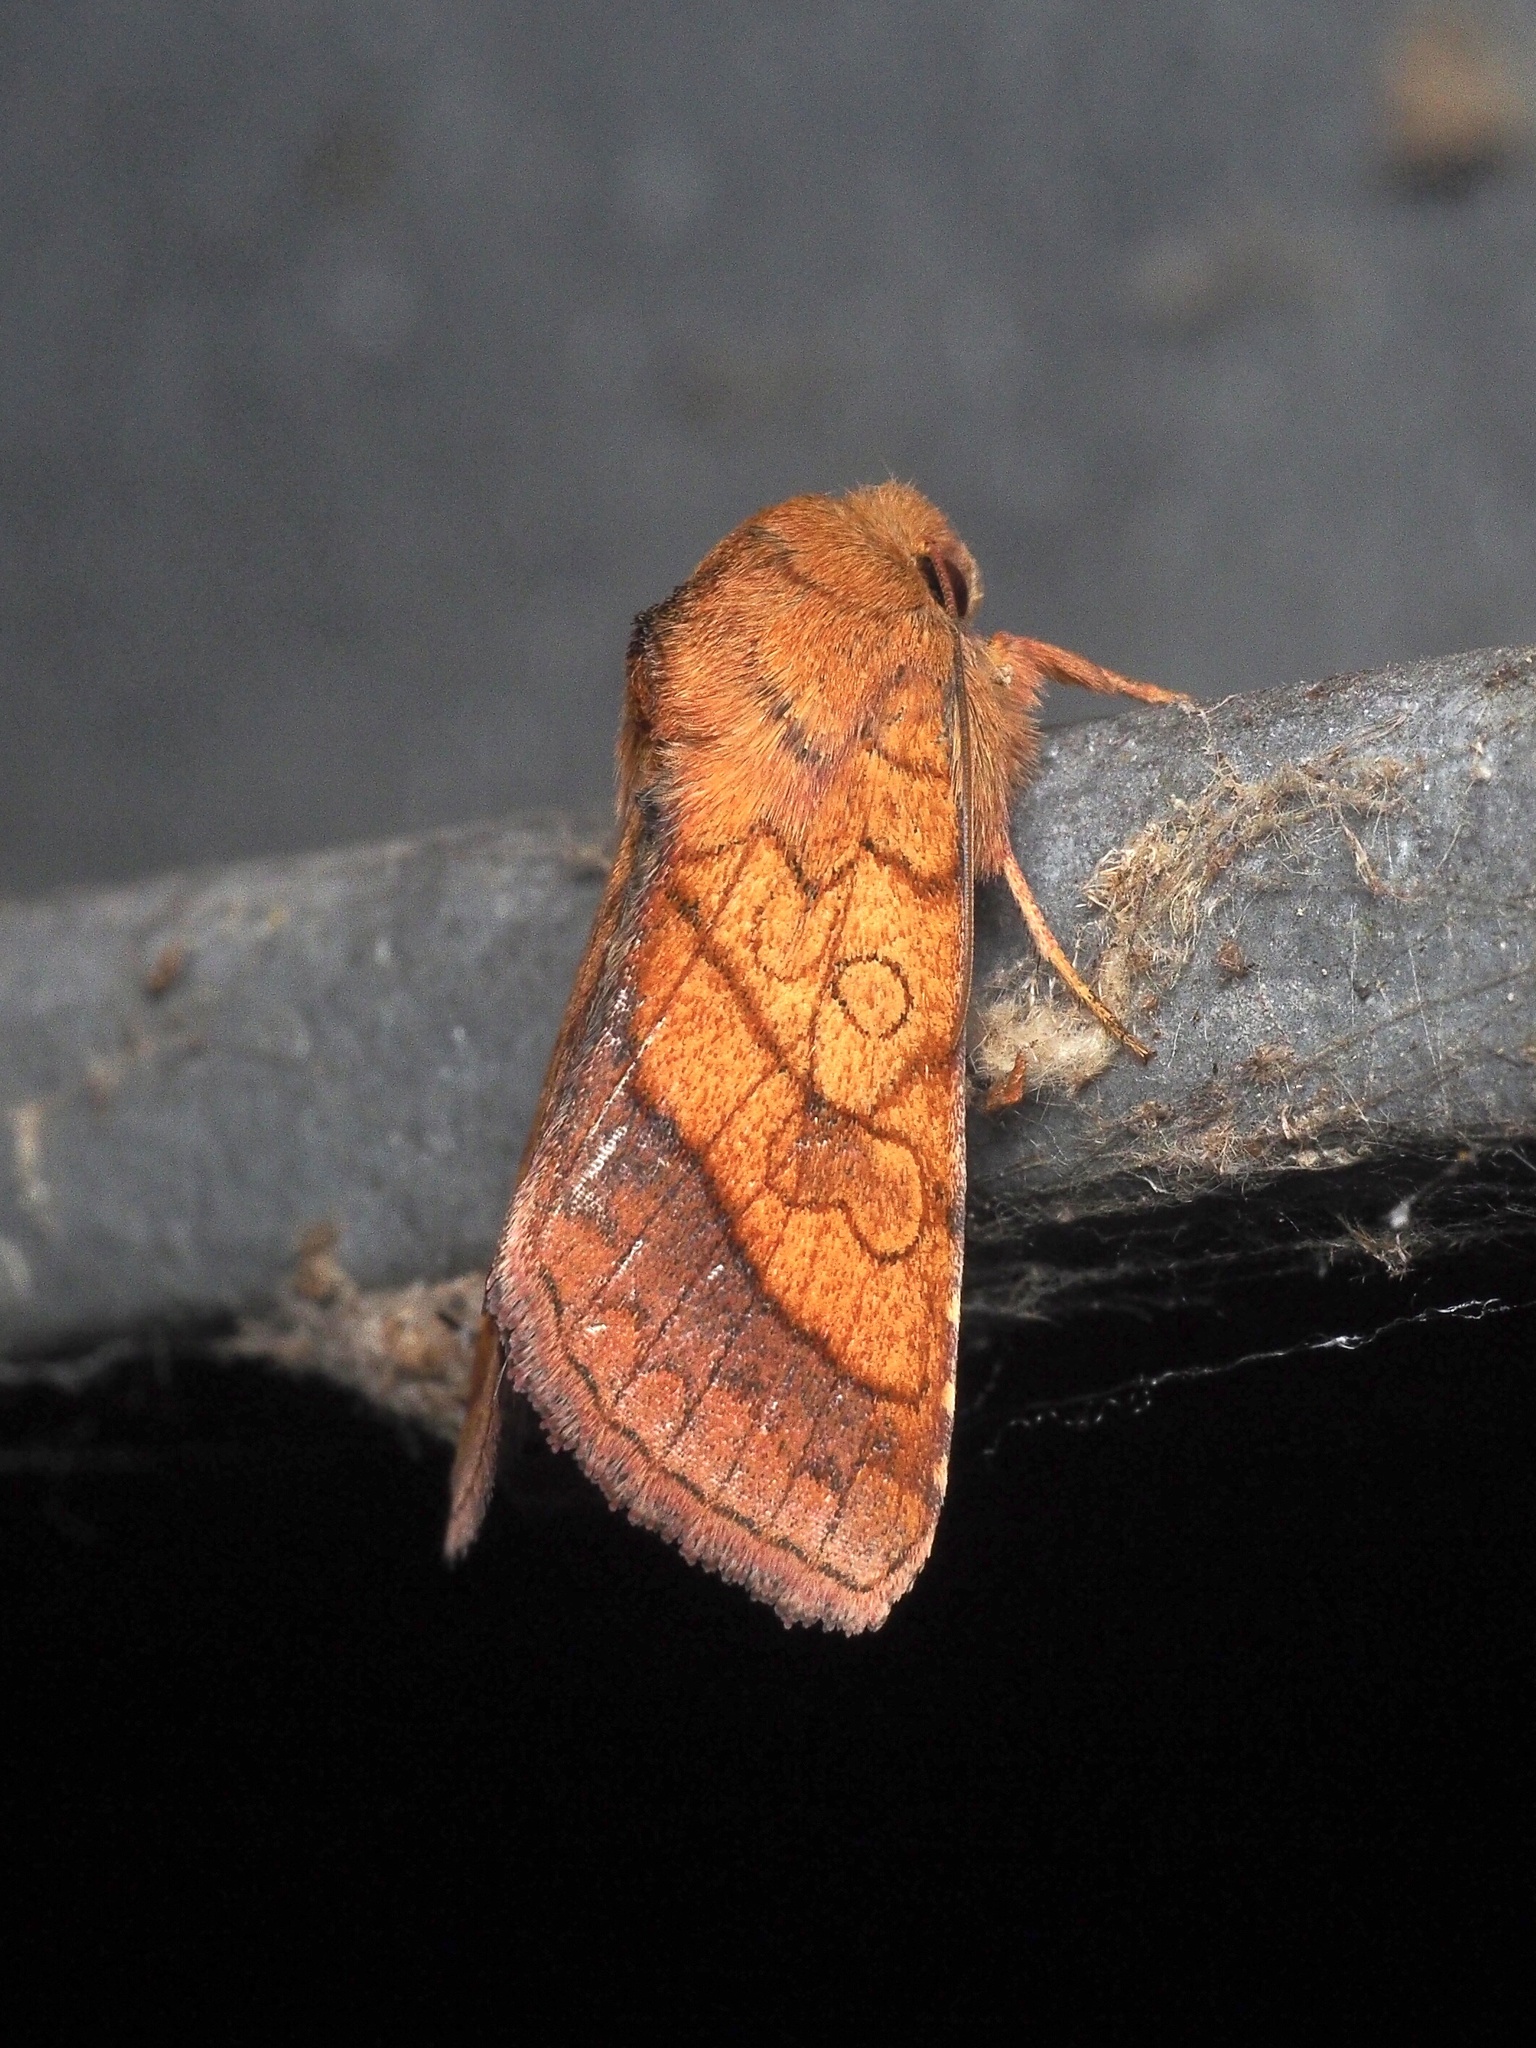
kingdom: Animalia
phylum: Arthropoda
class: Insecta
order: Lepidoptera
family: Noctuidae
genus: Pyrrhia
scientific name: Pyrrhia umbra
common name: Bordered sallow
